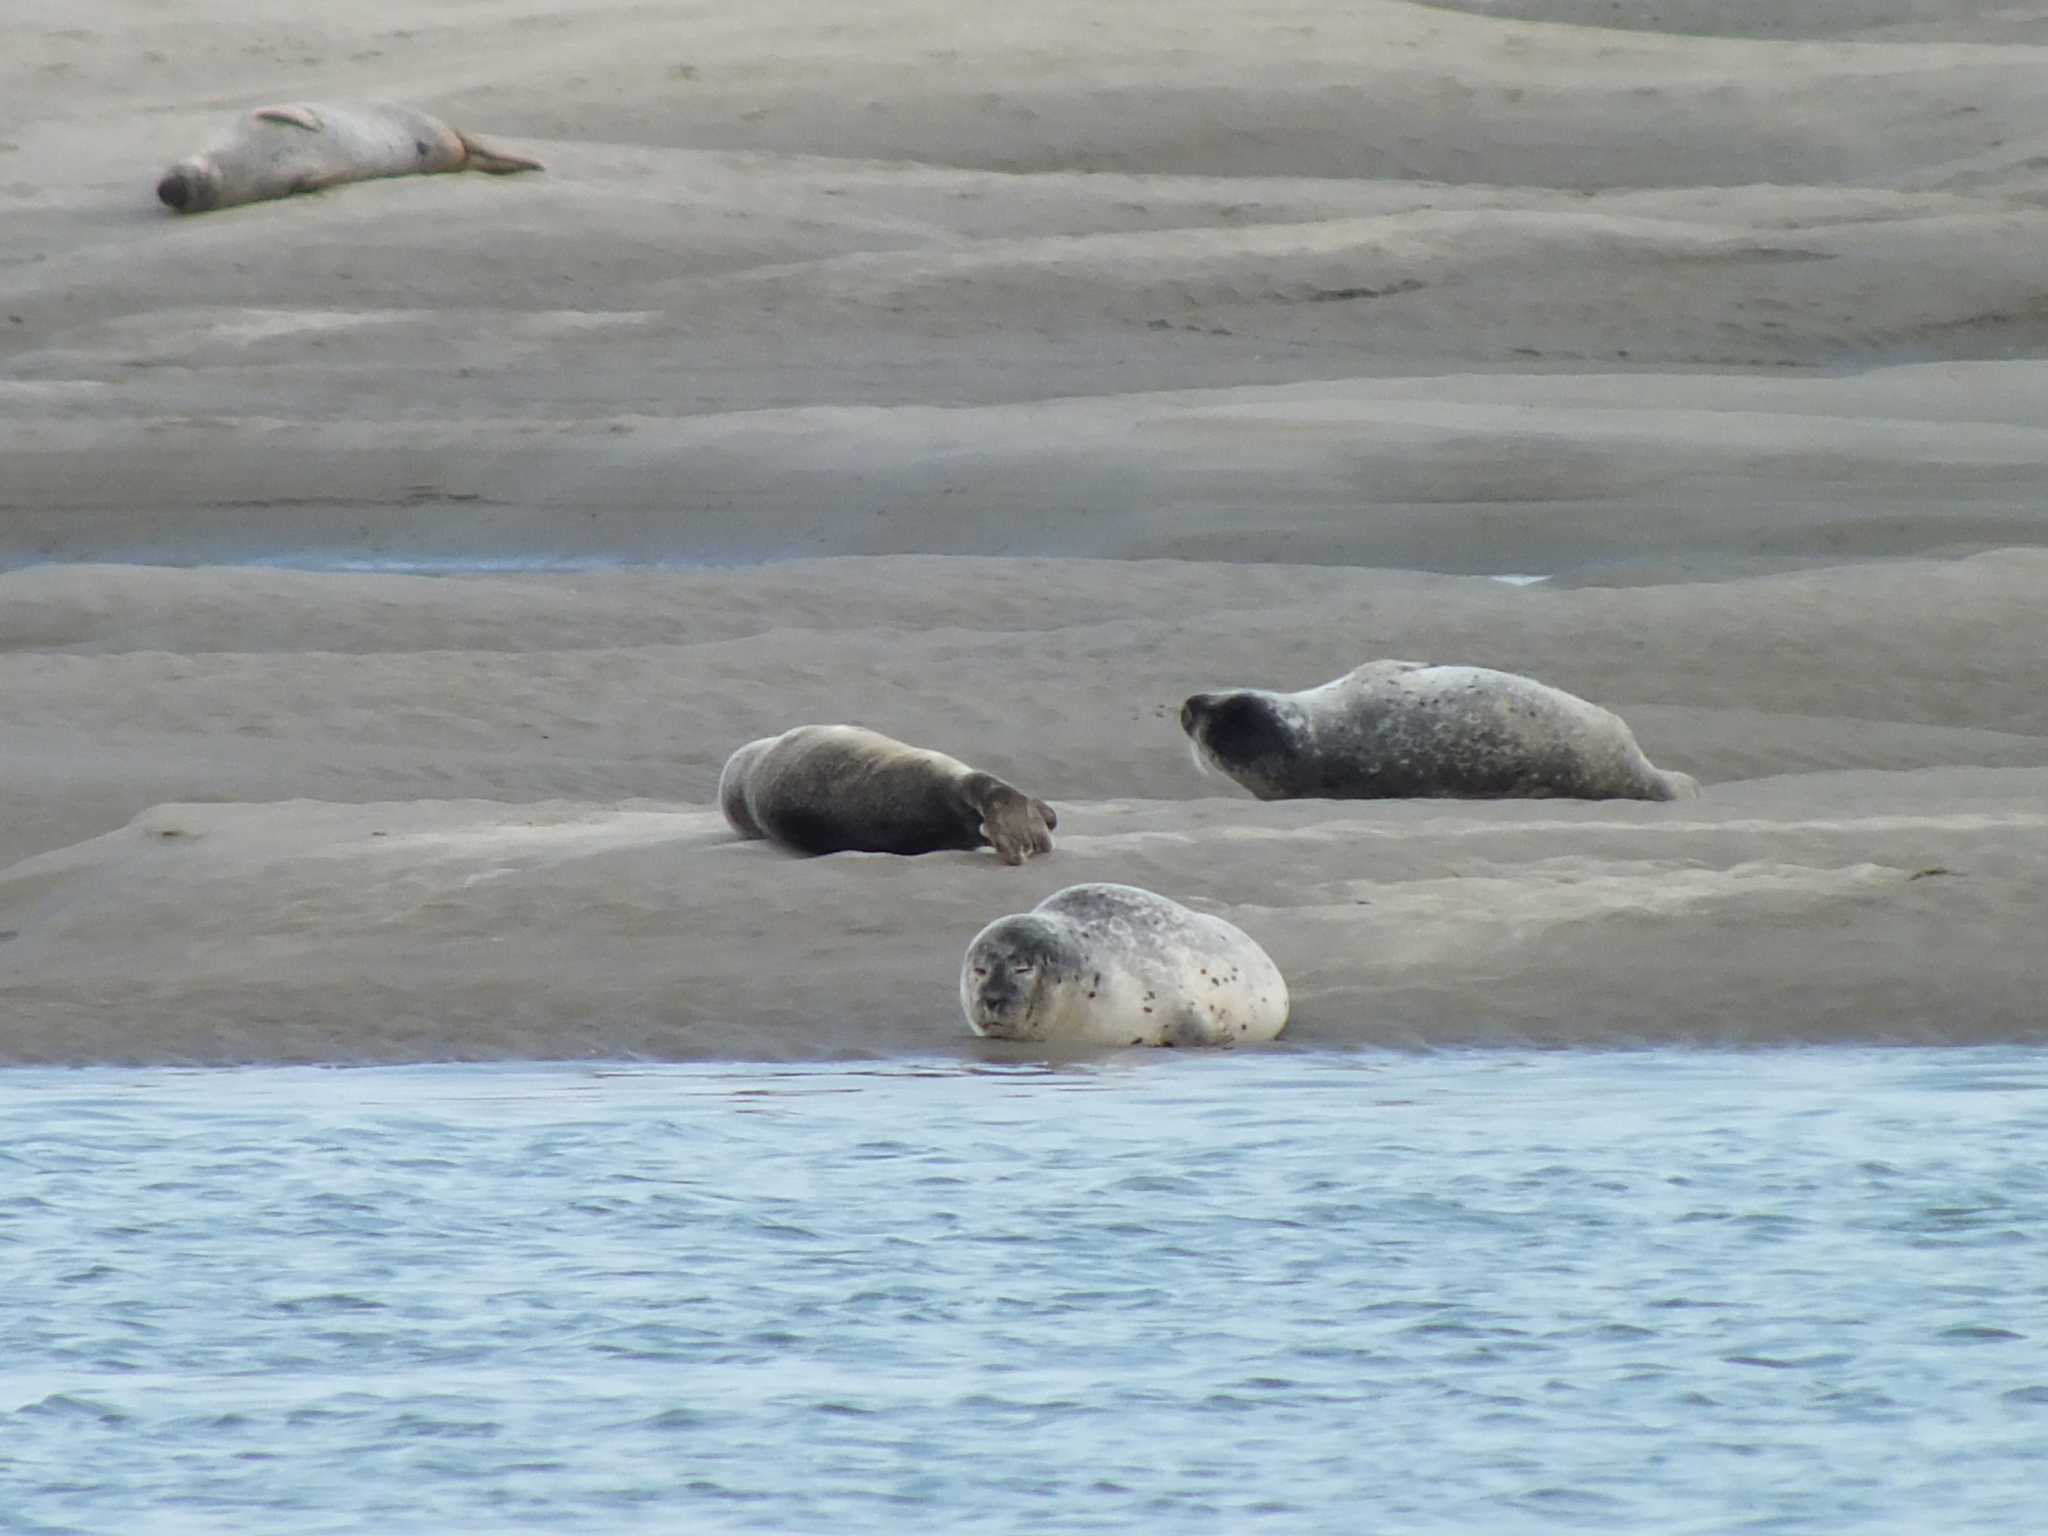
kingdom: Animalia
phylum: Chordata
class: Mammalia
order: Carnivora
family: Phocidae
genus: Phoca
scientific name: Phoca vitulina
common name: Harbor seal
